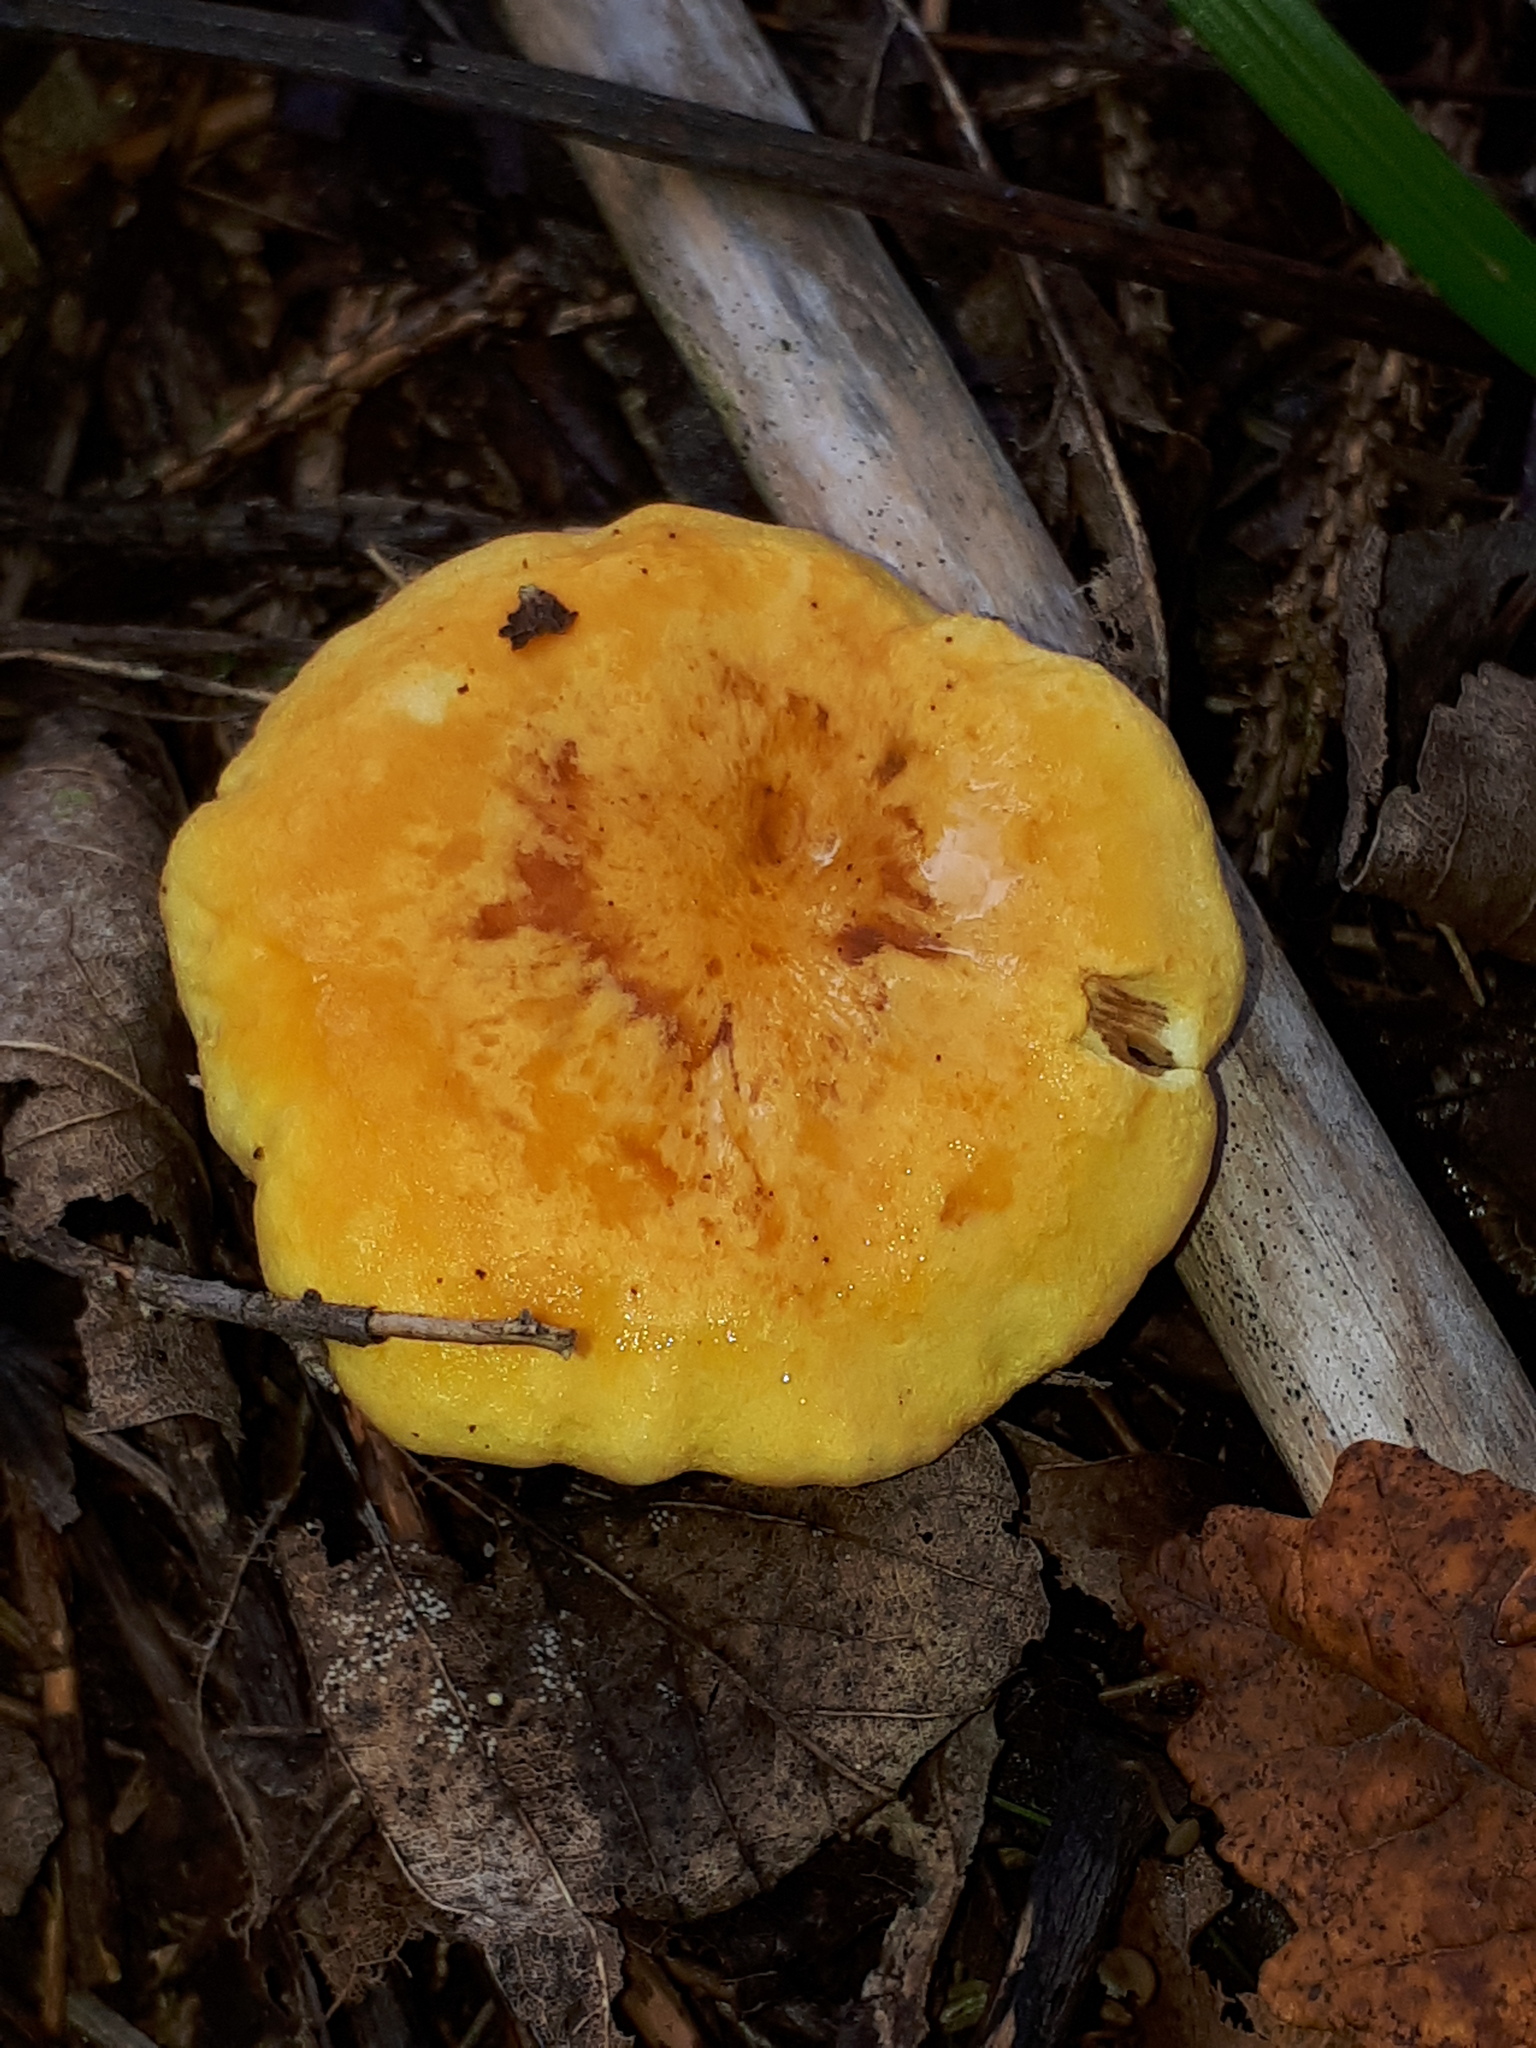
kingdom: Fungi
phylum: Basidiomycota
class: Agaricomycetes
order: Boletales
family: Hygrophoropsidaceae
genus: Hygrophoropsis
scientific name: Hygrophoropsis aurantiaca
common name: False chanterelle
